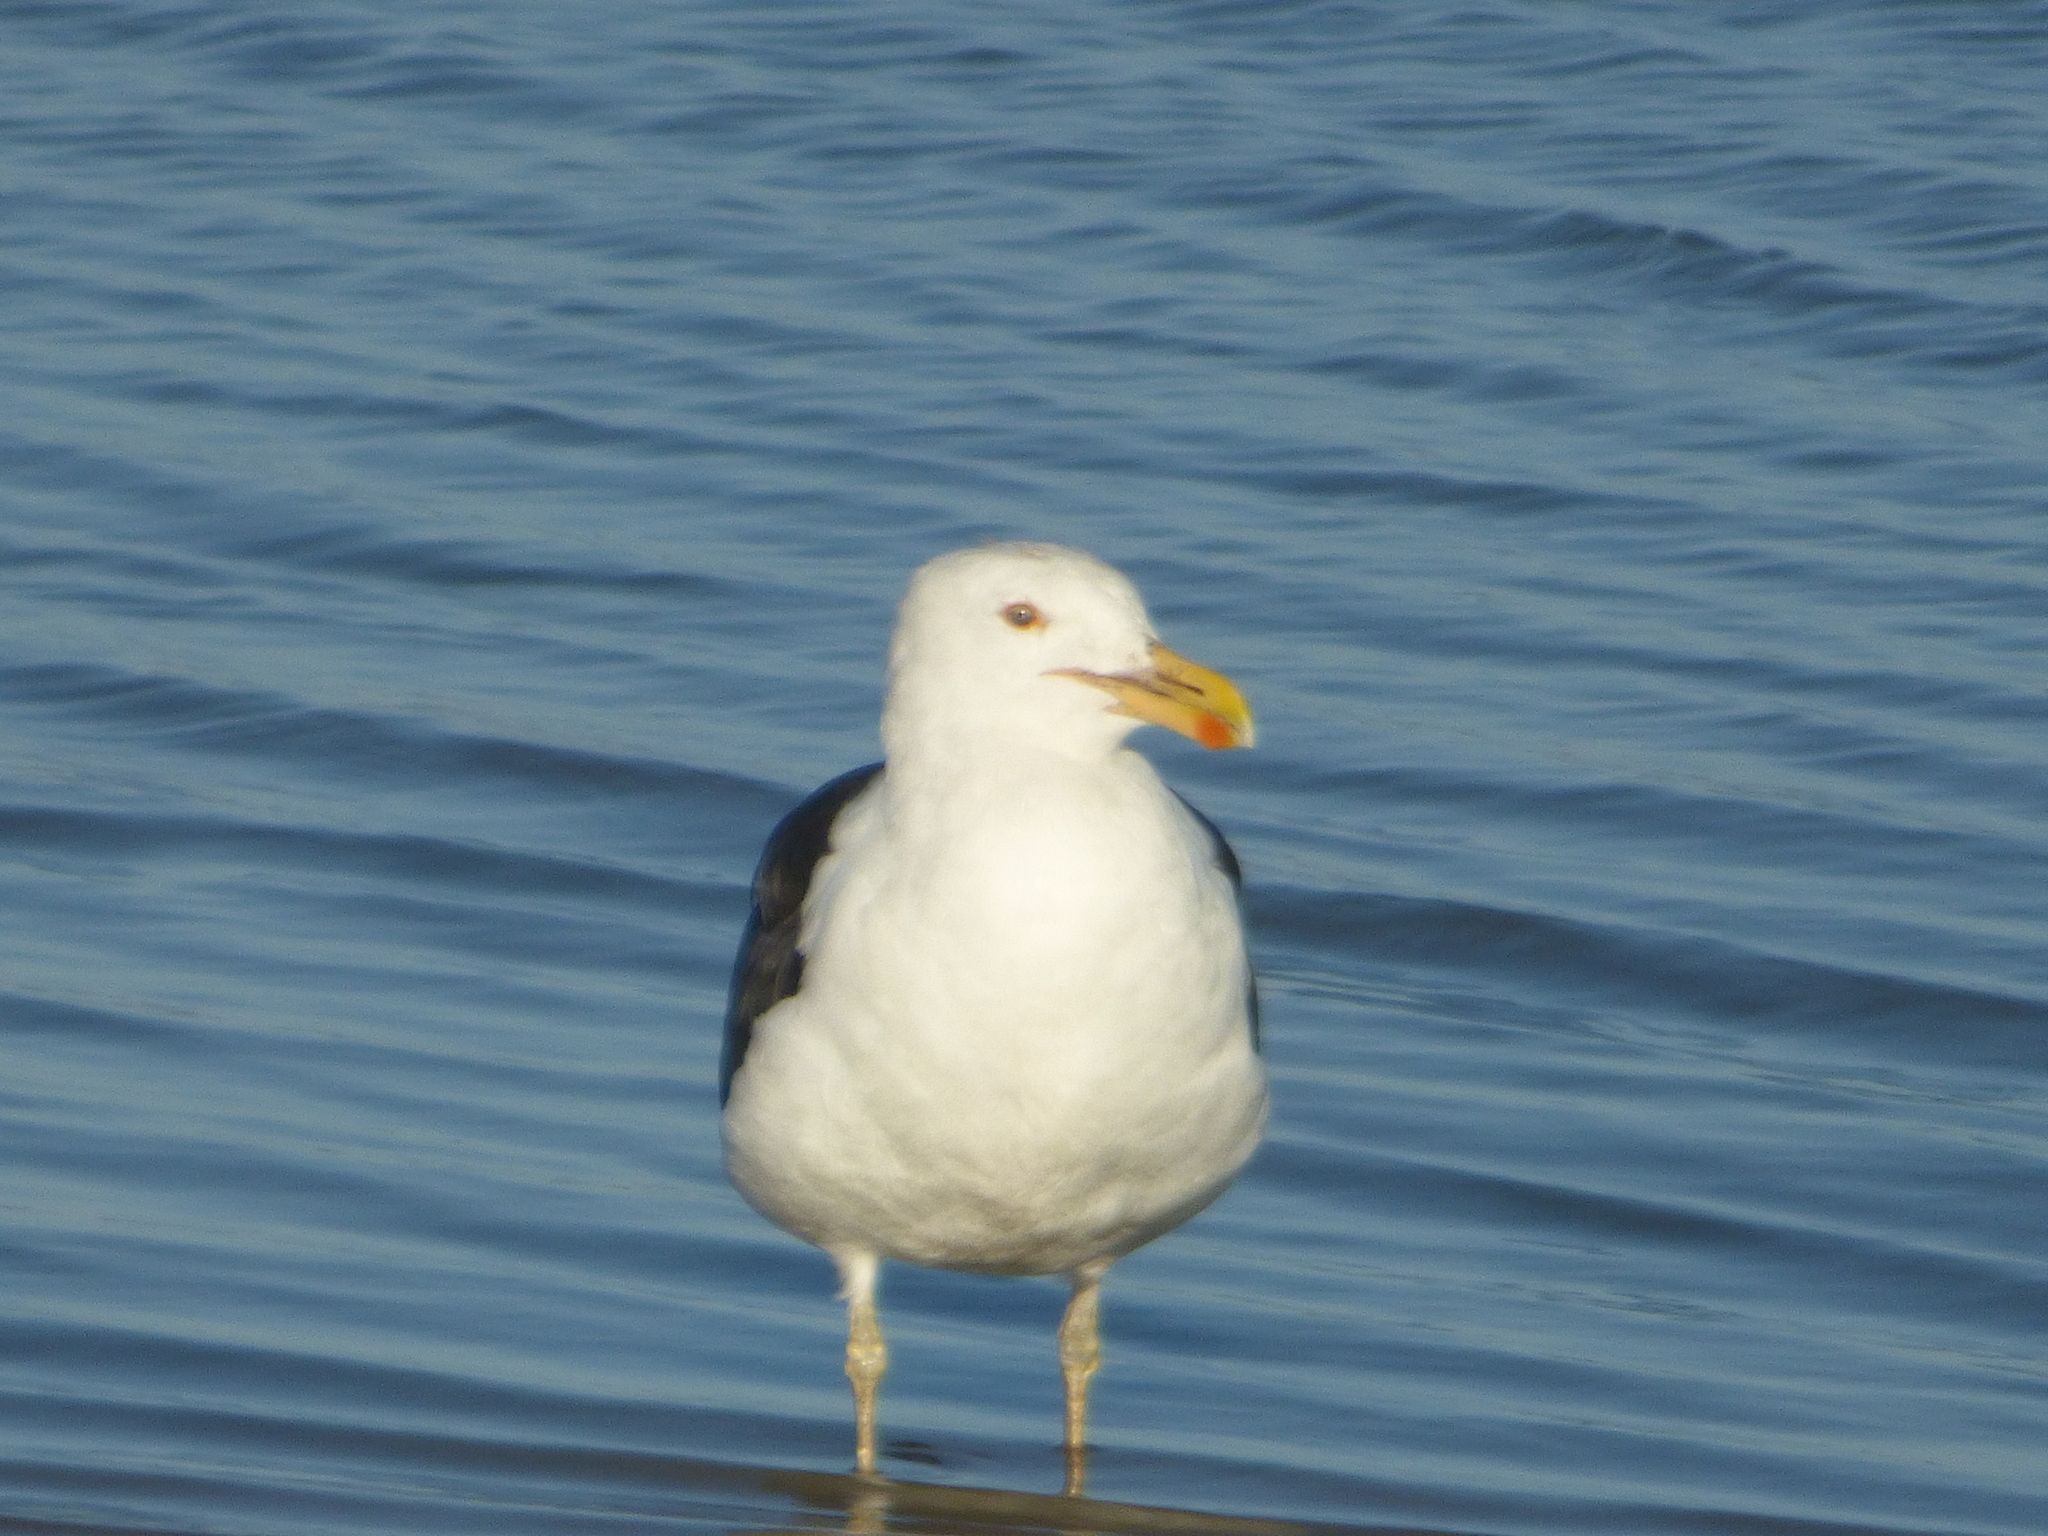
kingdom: Animalia
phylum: Chordata
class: Aves
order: Charadriiformes
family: Laridae
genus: Larus
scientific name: Larus dominicanus
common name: Kelp gull
